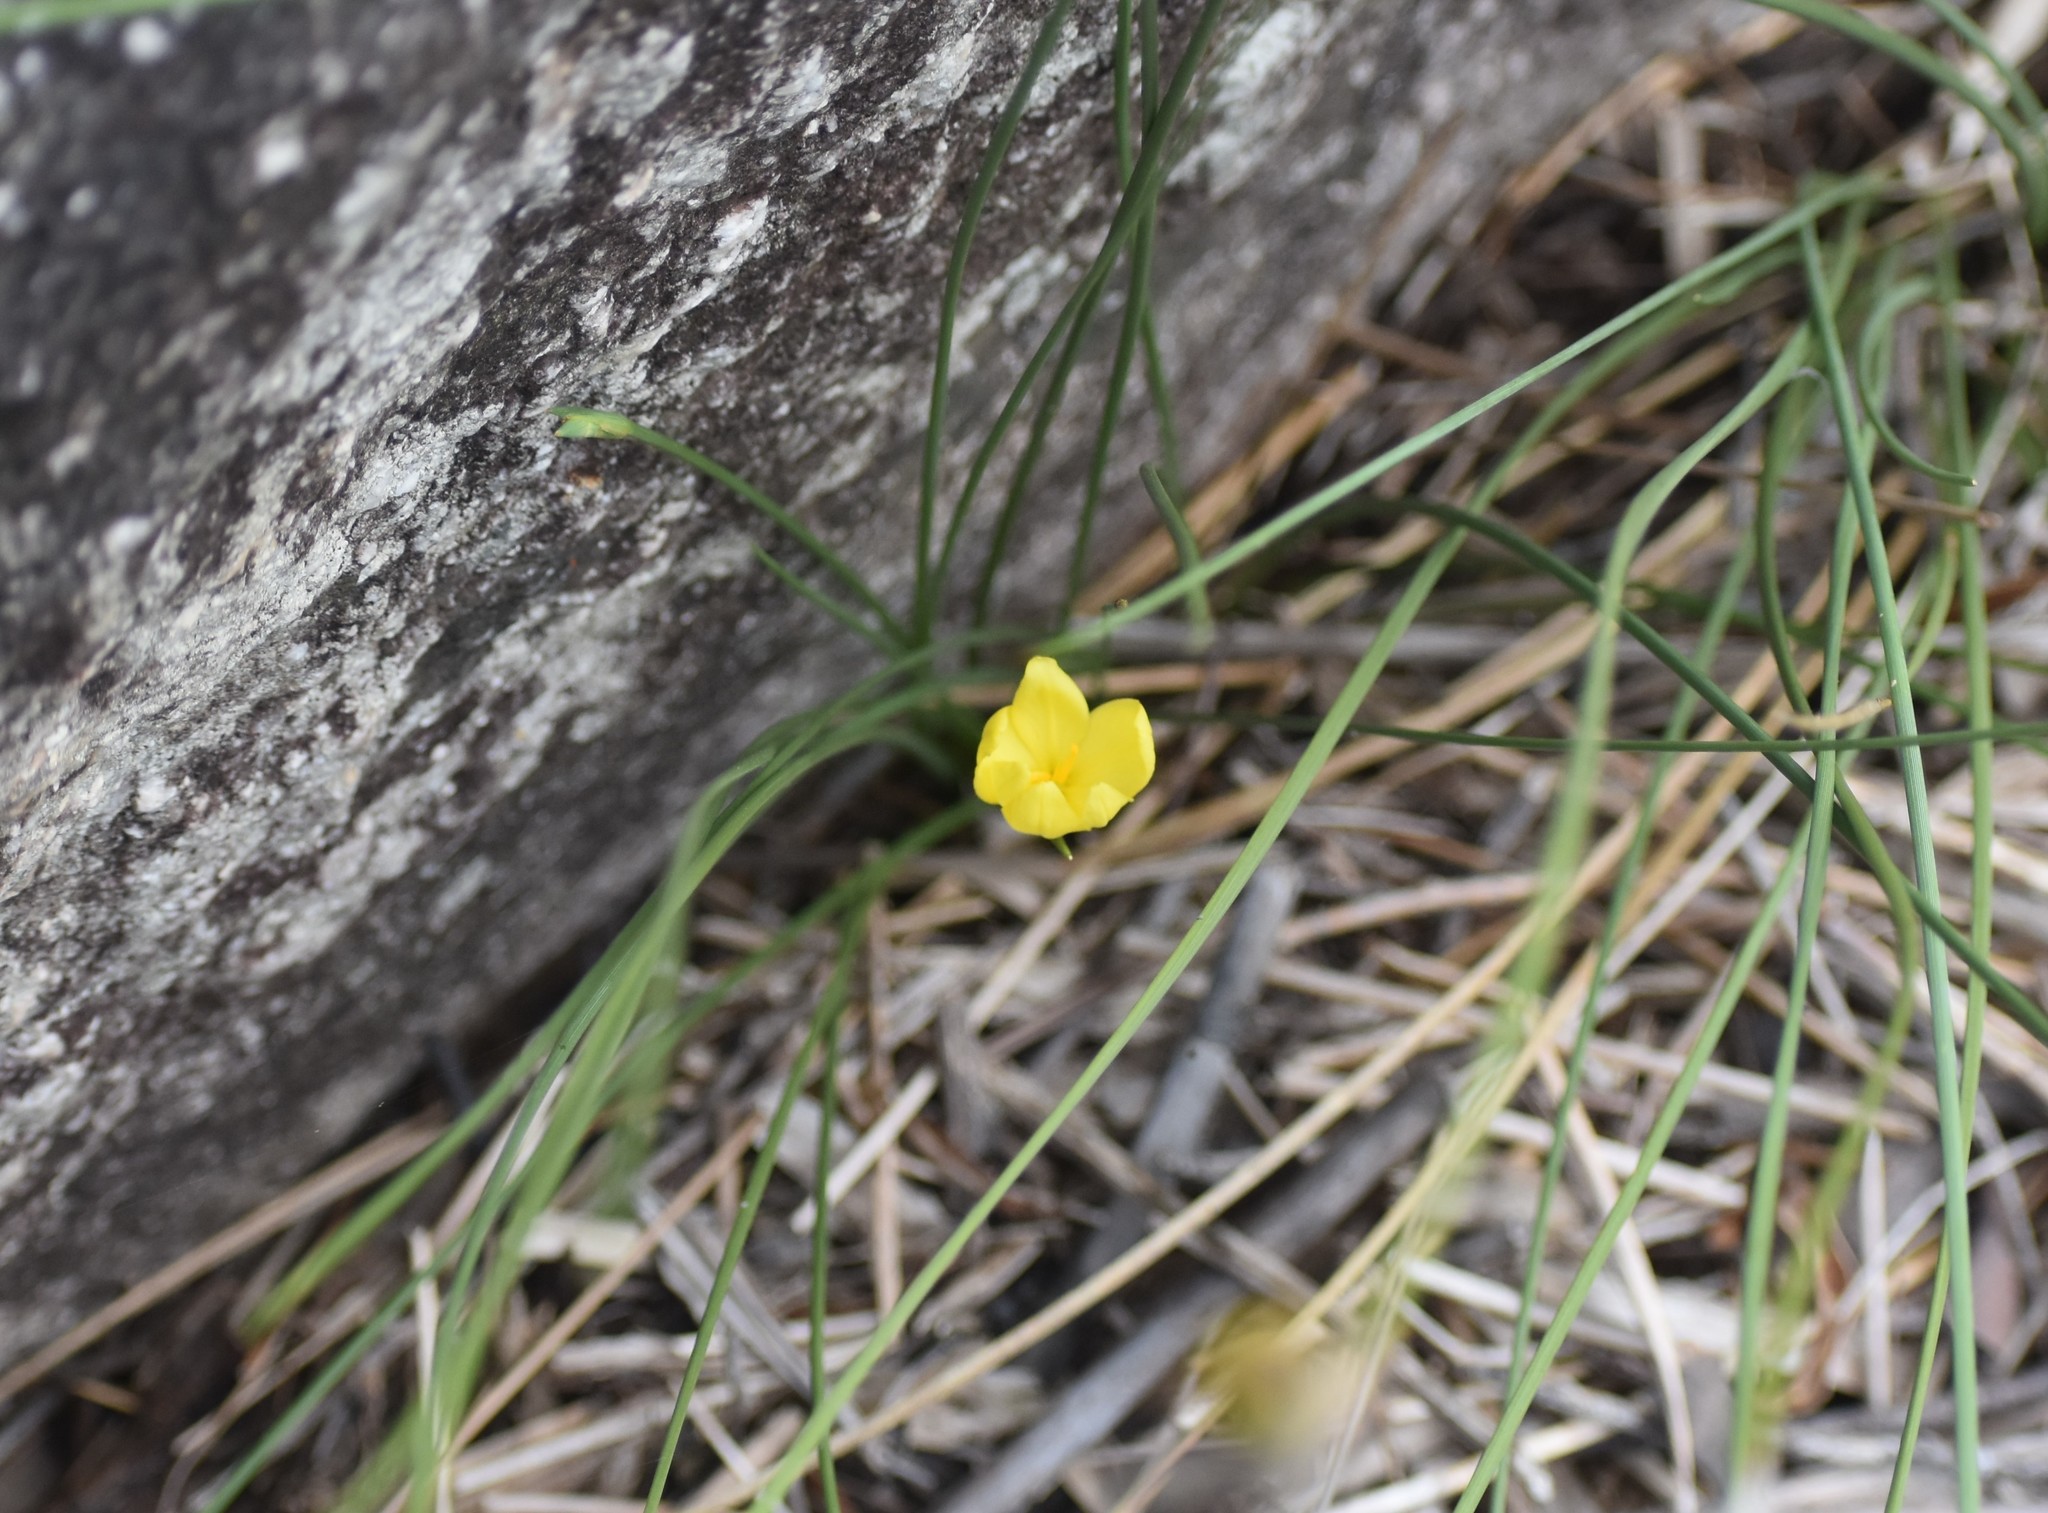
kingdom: Plantae
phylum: Tracheophyta
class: Liliopsida
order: Asparagales
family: Iridaceae
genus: Bobartia
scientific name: Bobartia aphylla
